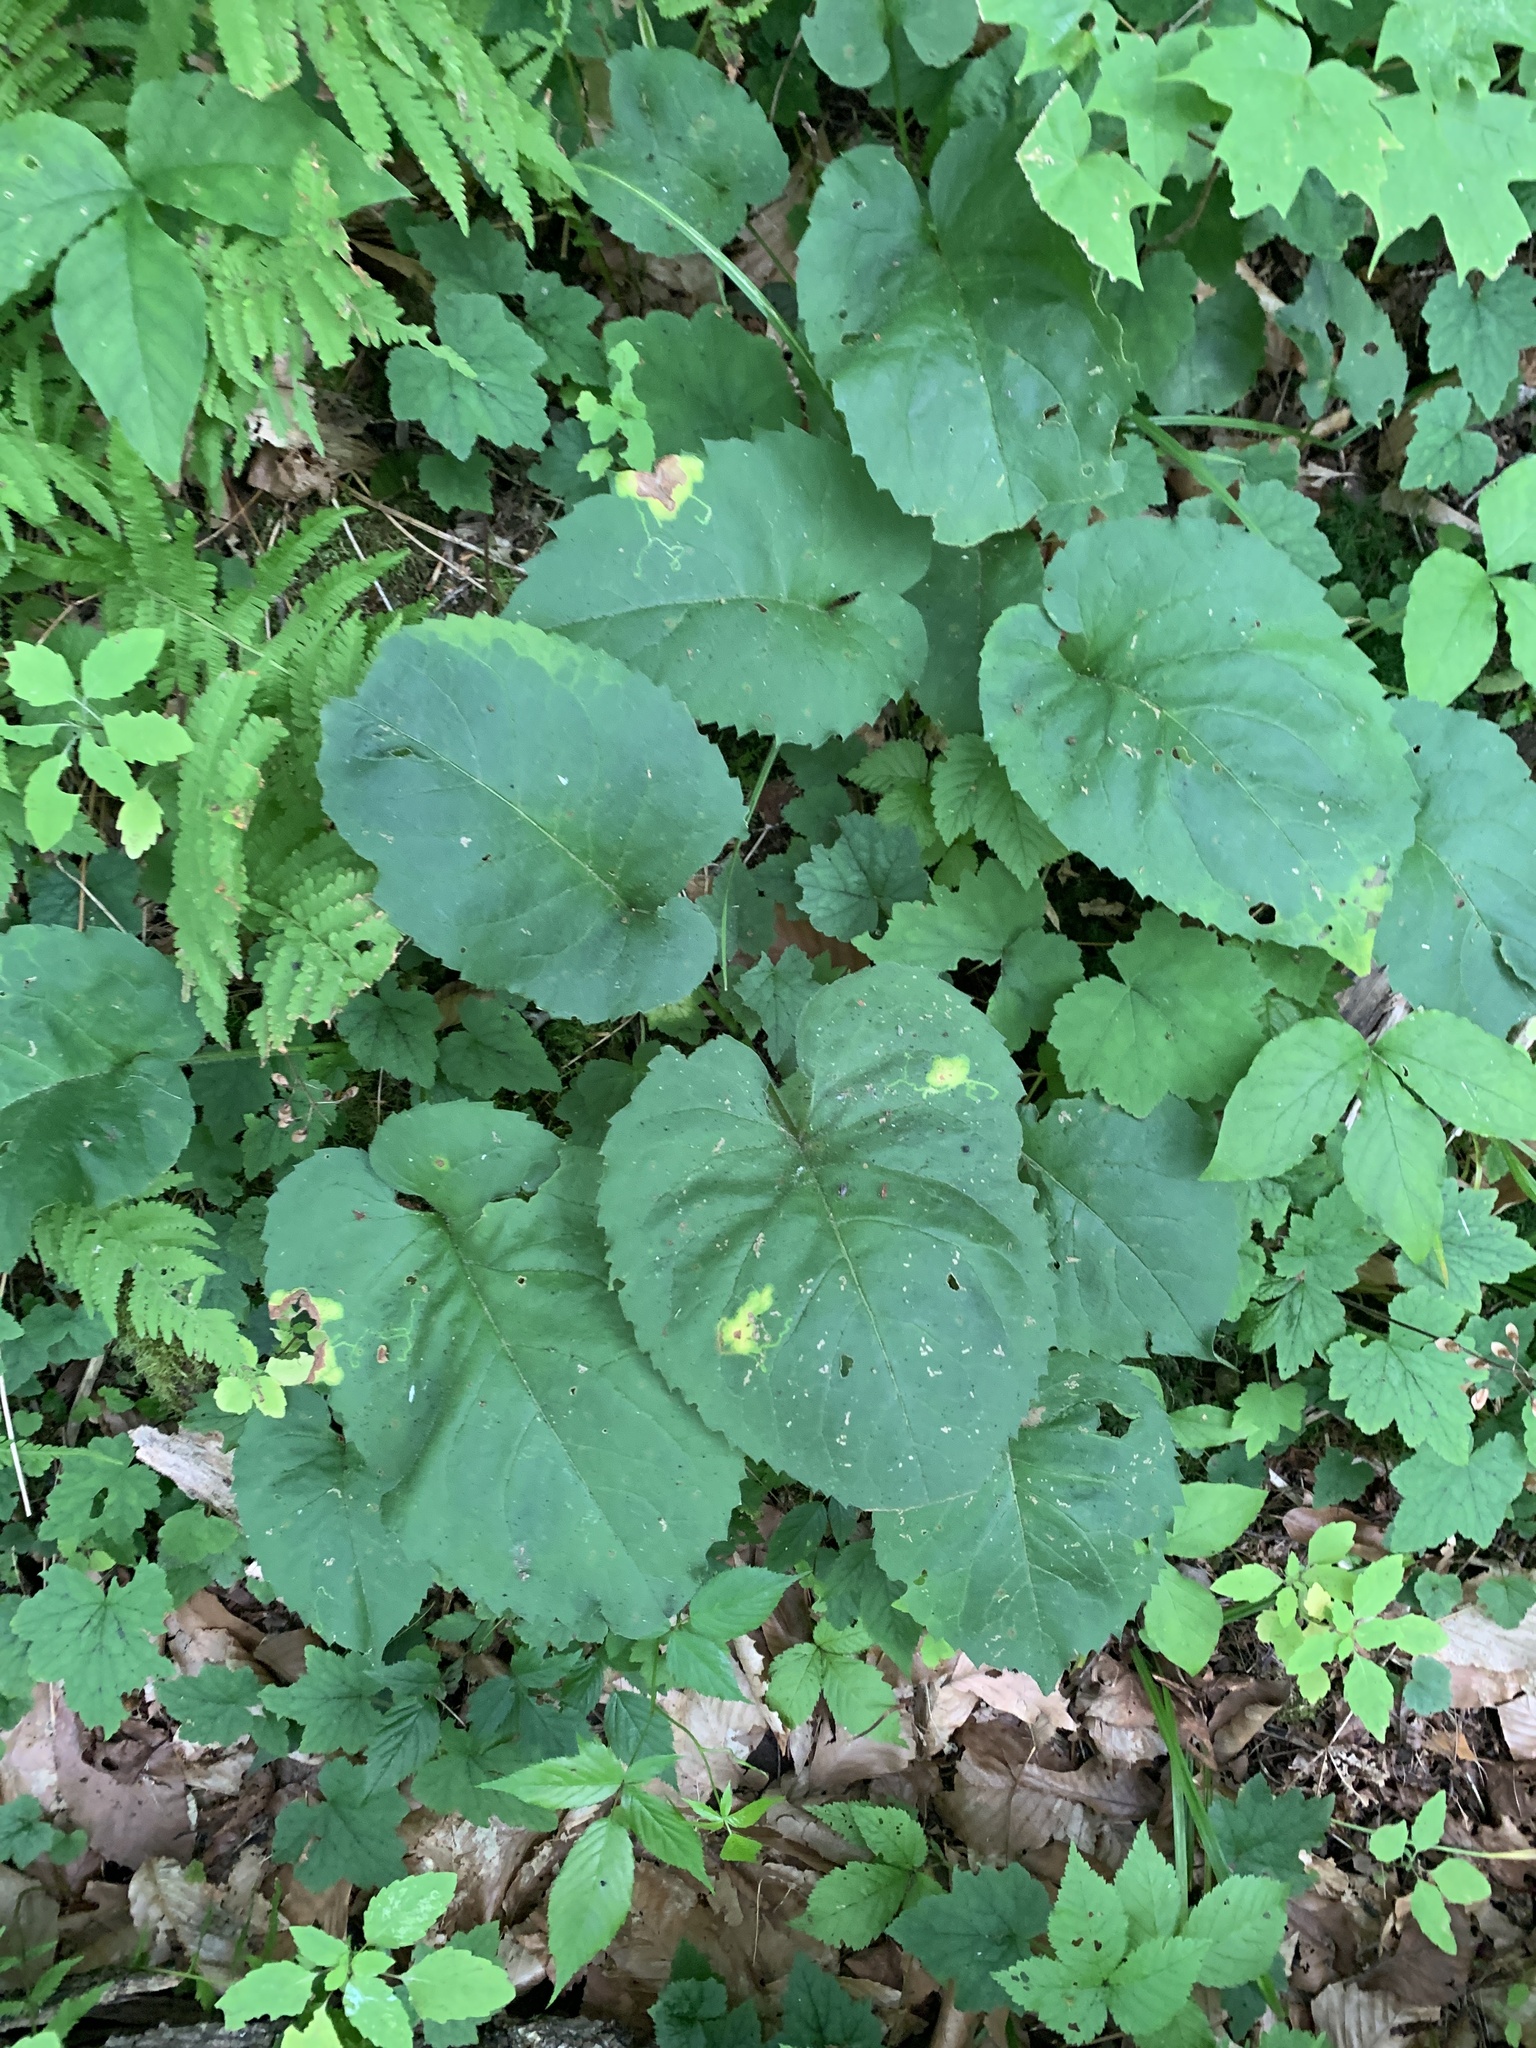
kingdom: Plantae
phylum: Tracheophyta
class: Magnoliopsida
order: Asterales
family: Asteraceae
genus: Eurybia
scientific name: Eurybia macrophylla
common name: Big-leaved aster
